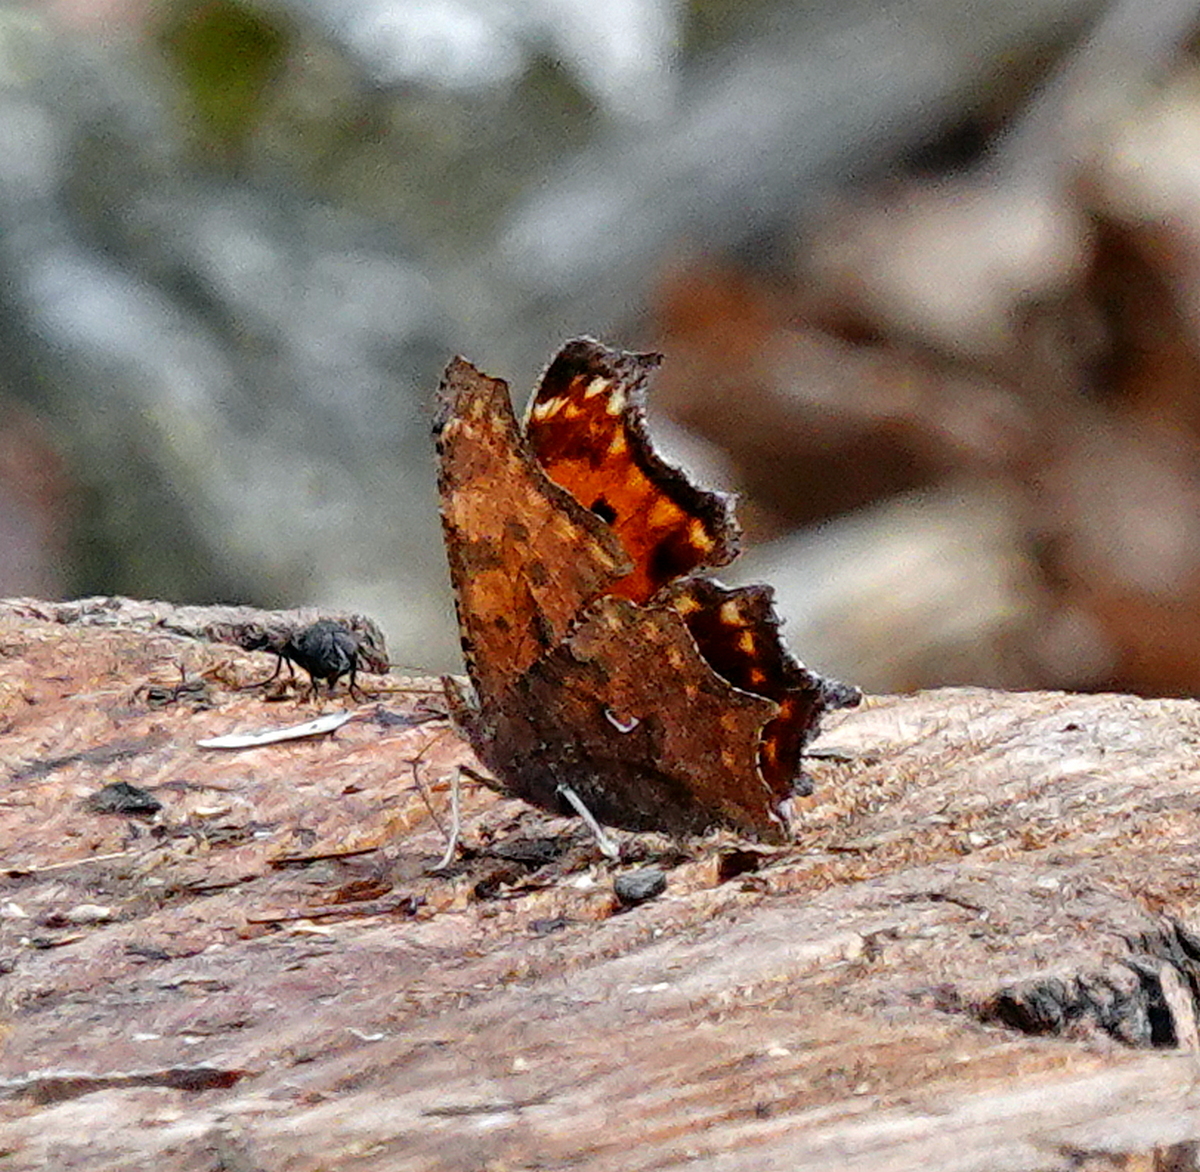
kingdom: Animalia
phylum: Arthropoda
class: Insecta
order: Lepidoptera
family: Nymphalidae
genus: Polygonia
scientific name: Polygonia comma
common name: Eastern comma
